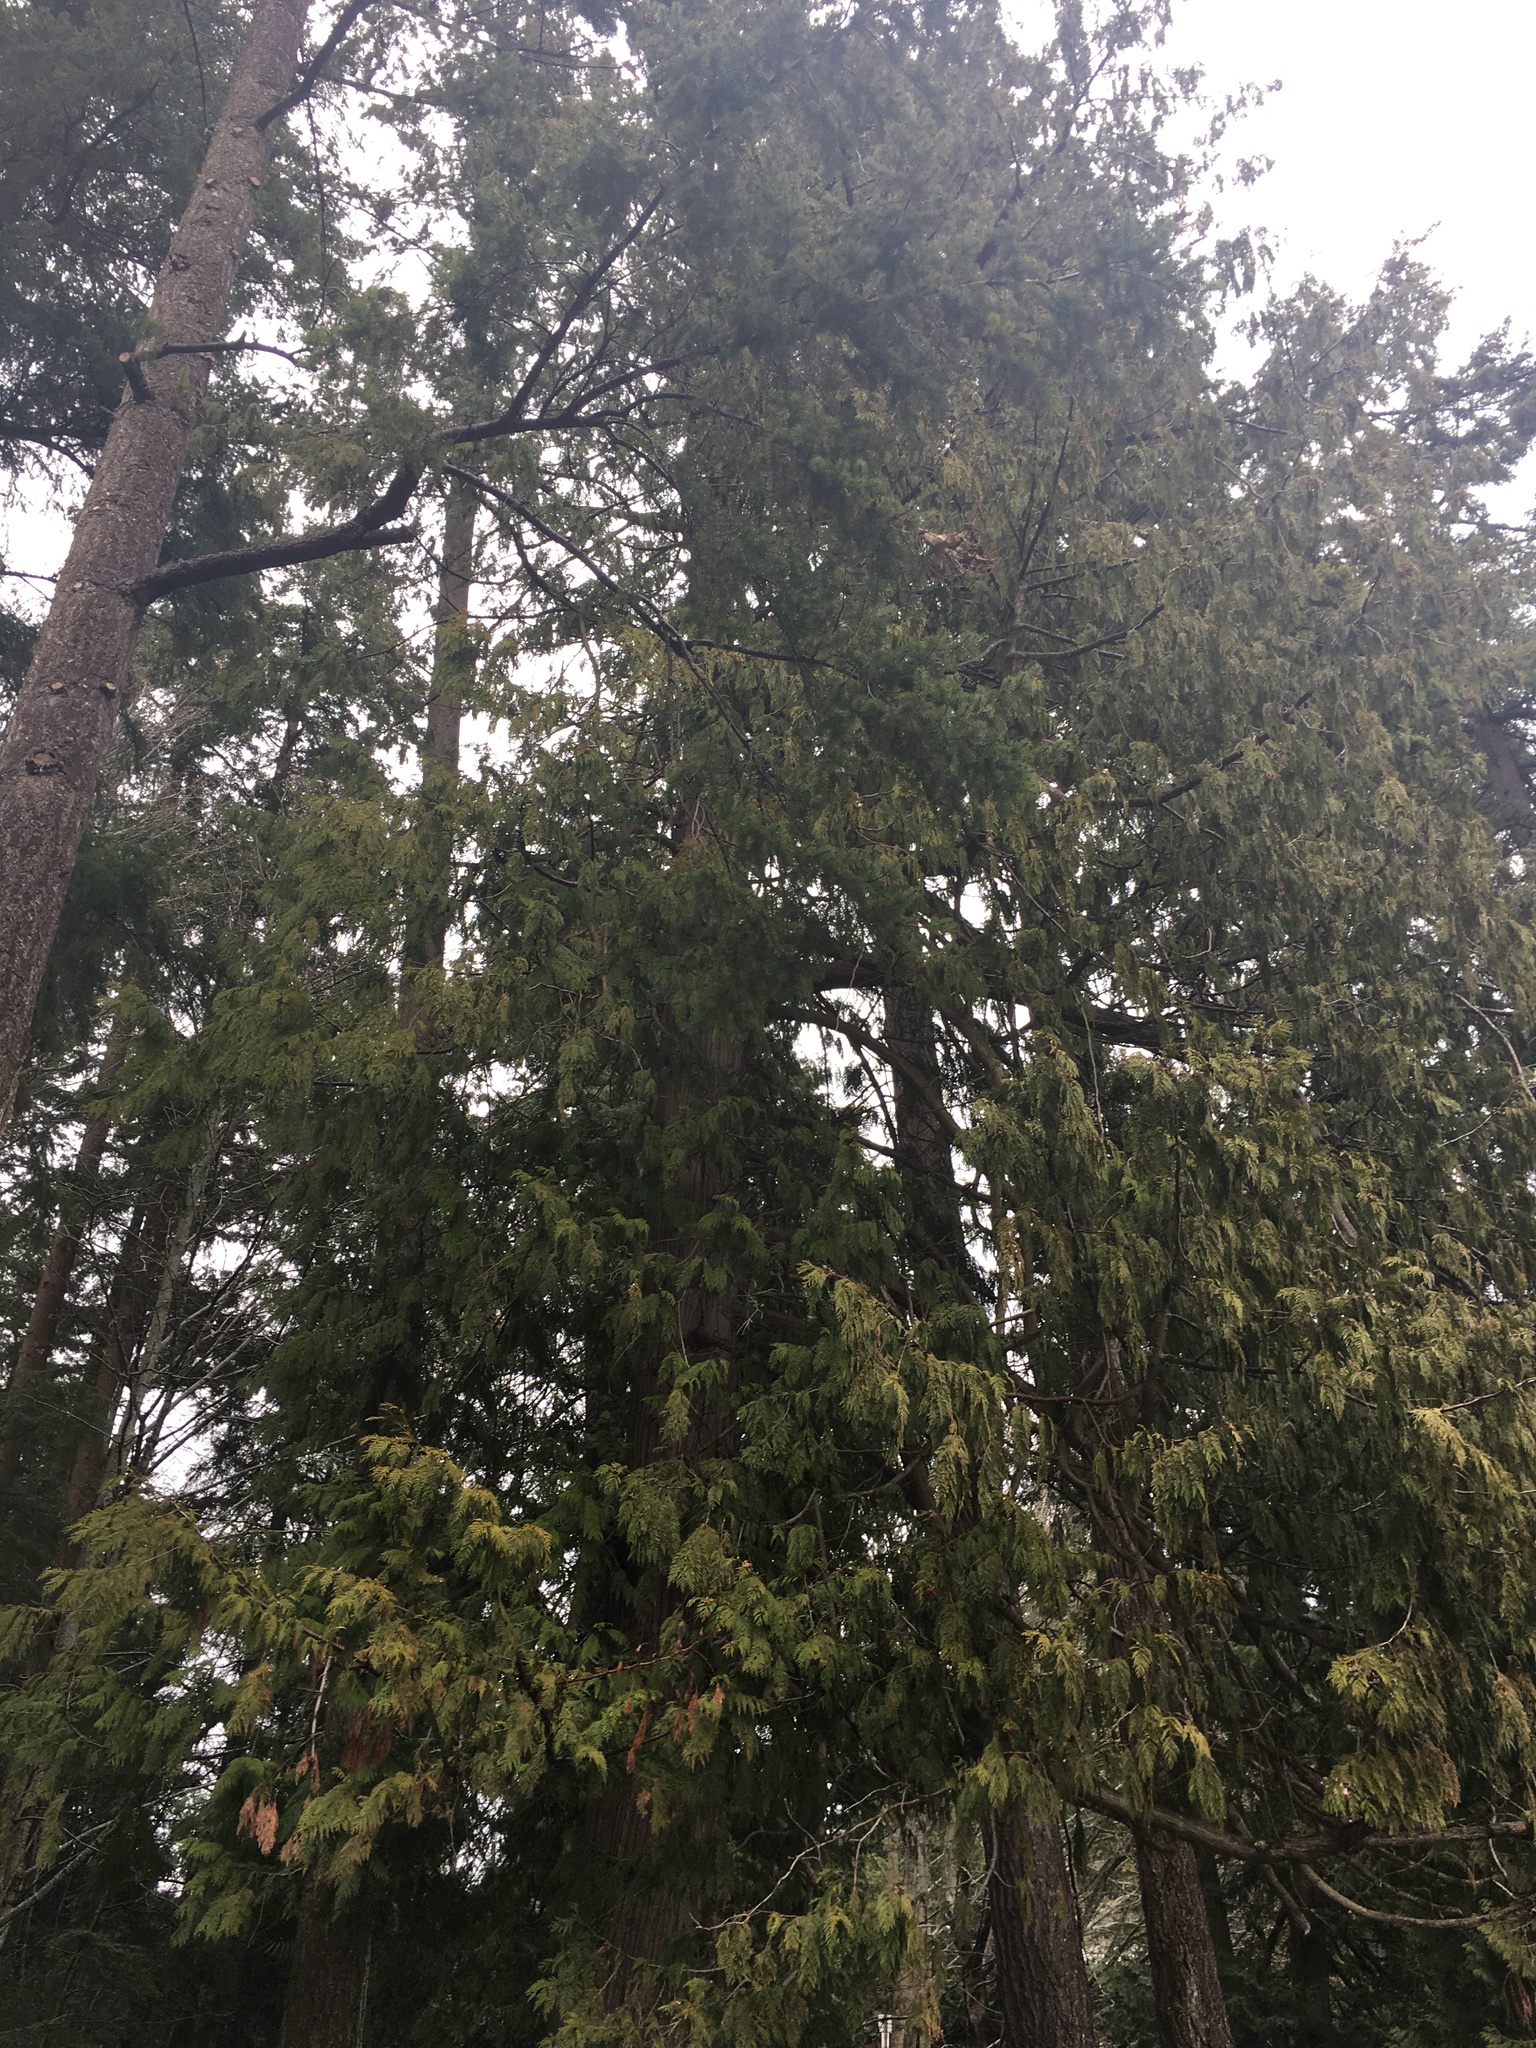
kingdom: Plantae
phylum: Tracheophyta
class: Pinopsida
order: Pinales
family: Cupressaceae
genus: Thuja
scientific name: Thuja plicata
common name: Western red-cedar
